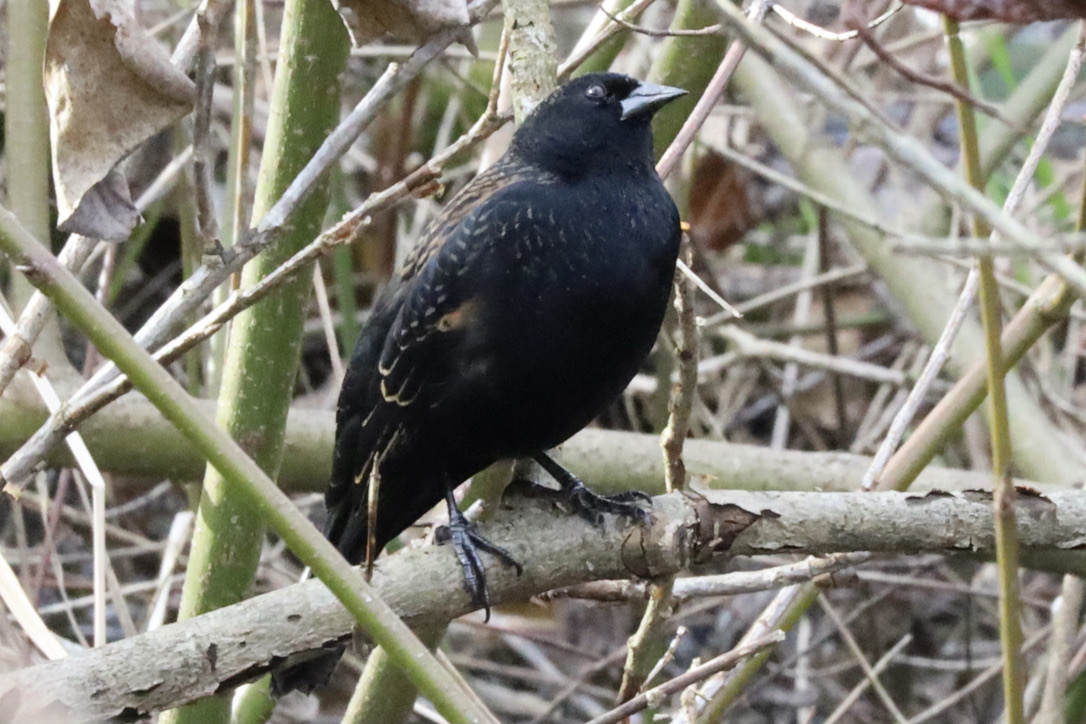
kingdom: Animalia
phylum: Chordata
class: Aves
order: Passeriformes
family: Icteridae
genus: Agelaius
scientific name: Agelaius phoeniceus
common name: Red-winged blackbird
